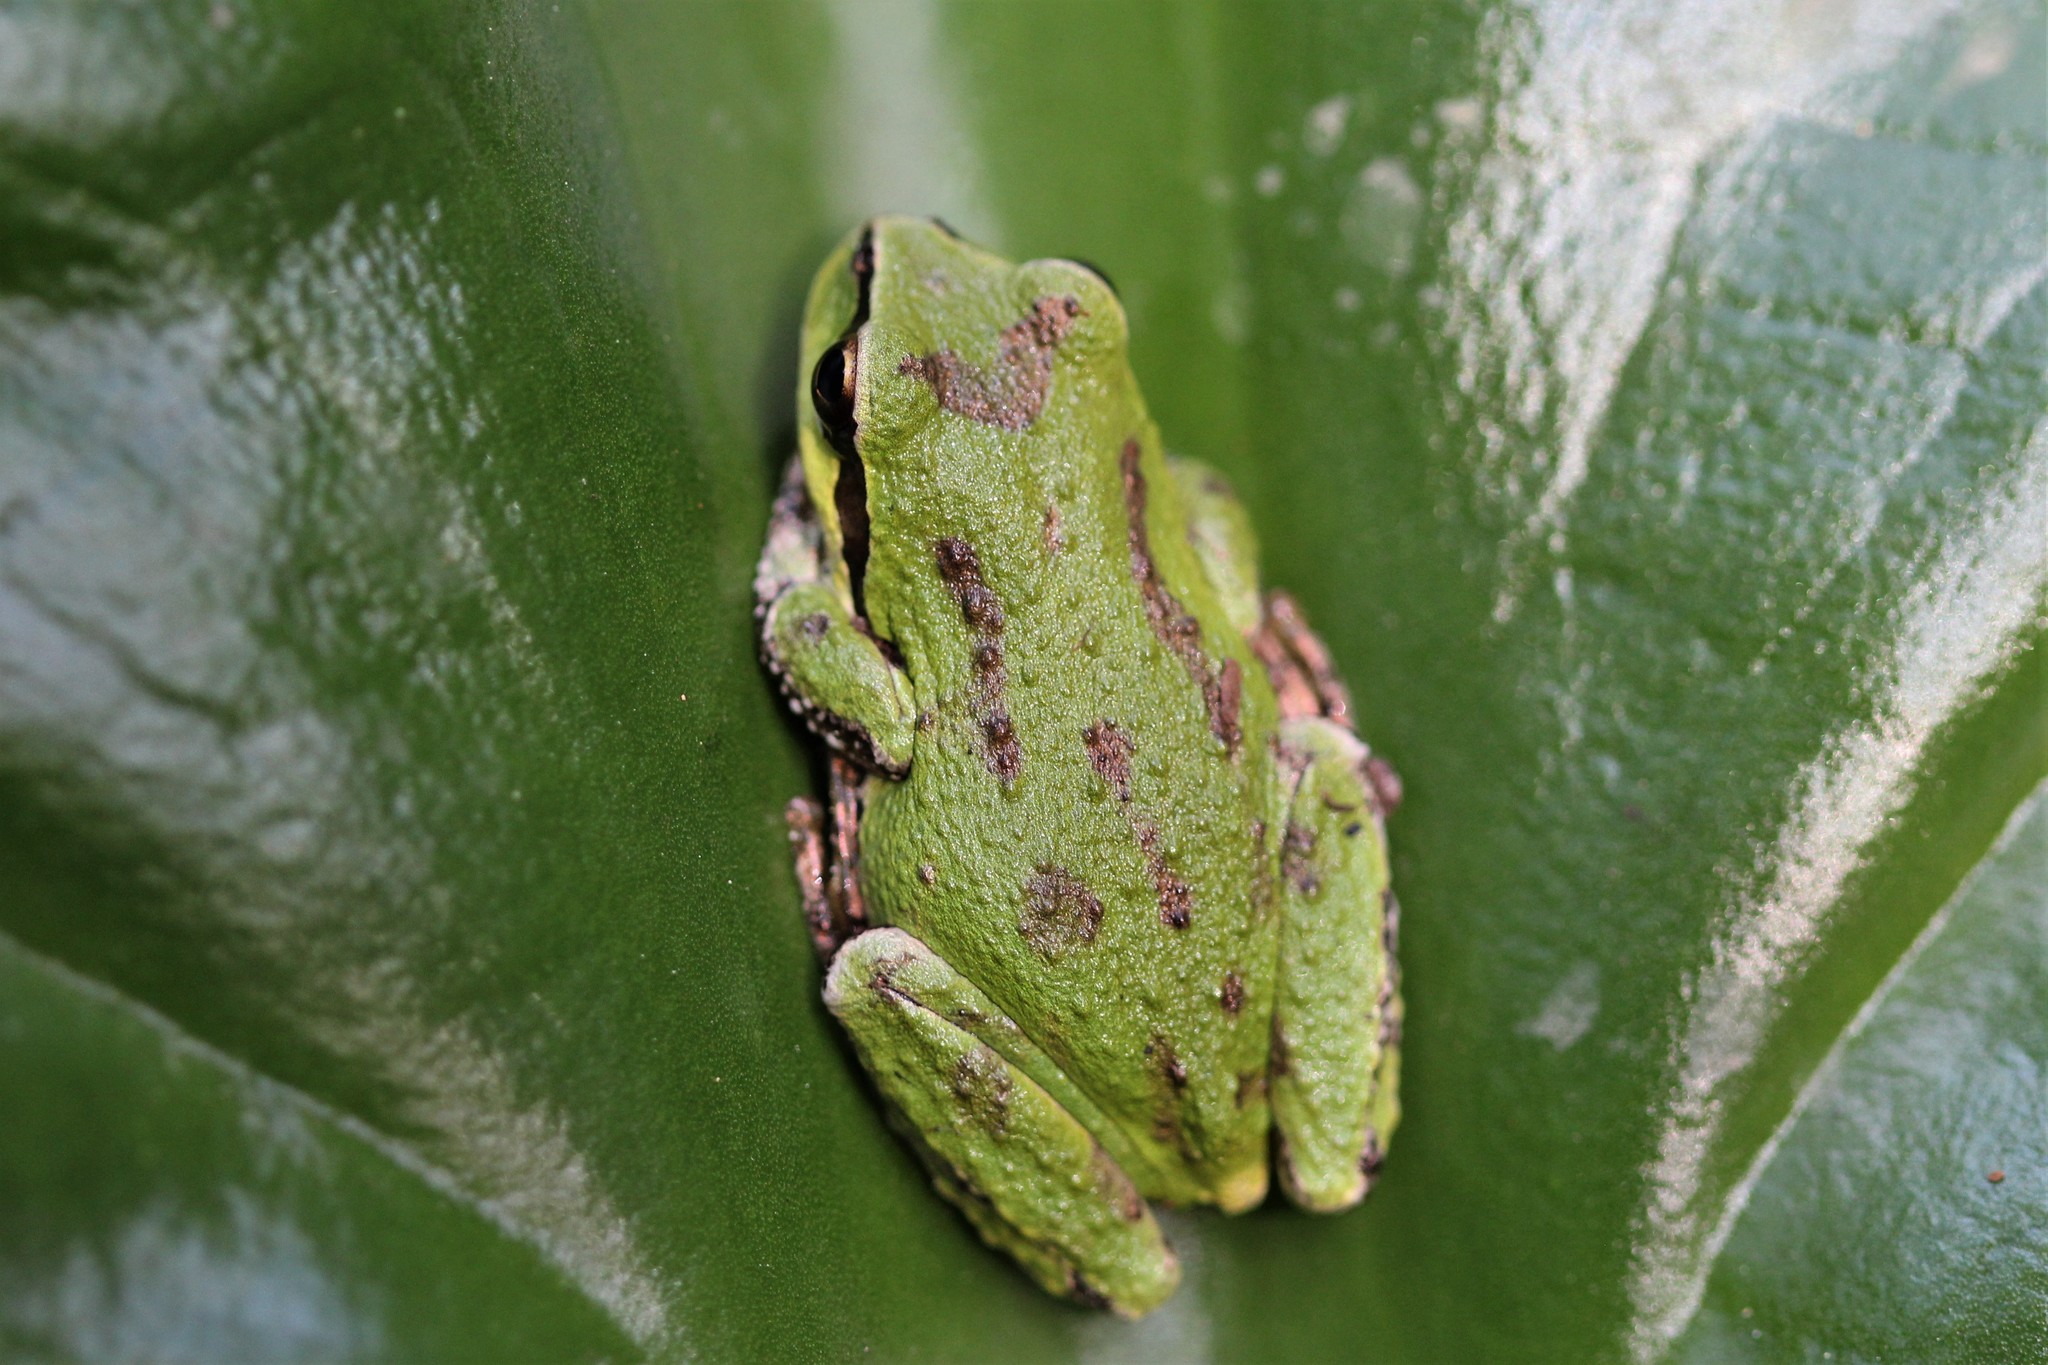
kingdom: Animalia
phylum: Chordata
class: Amphibia
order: Anura
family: Hylidae
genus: Pseudacris
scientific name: Pseudacris regilla
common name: Pacific chorus frog
